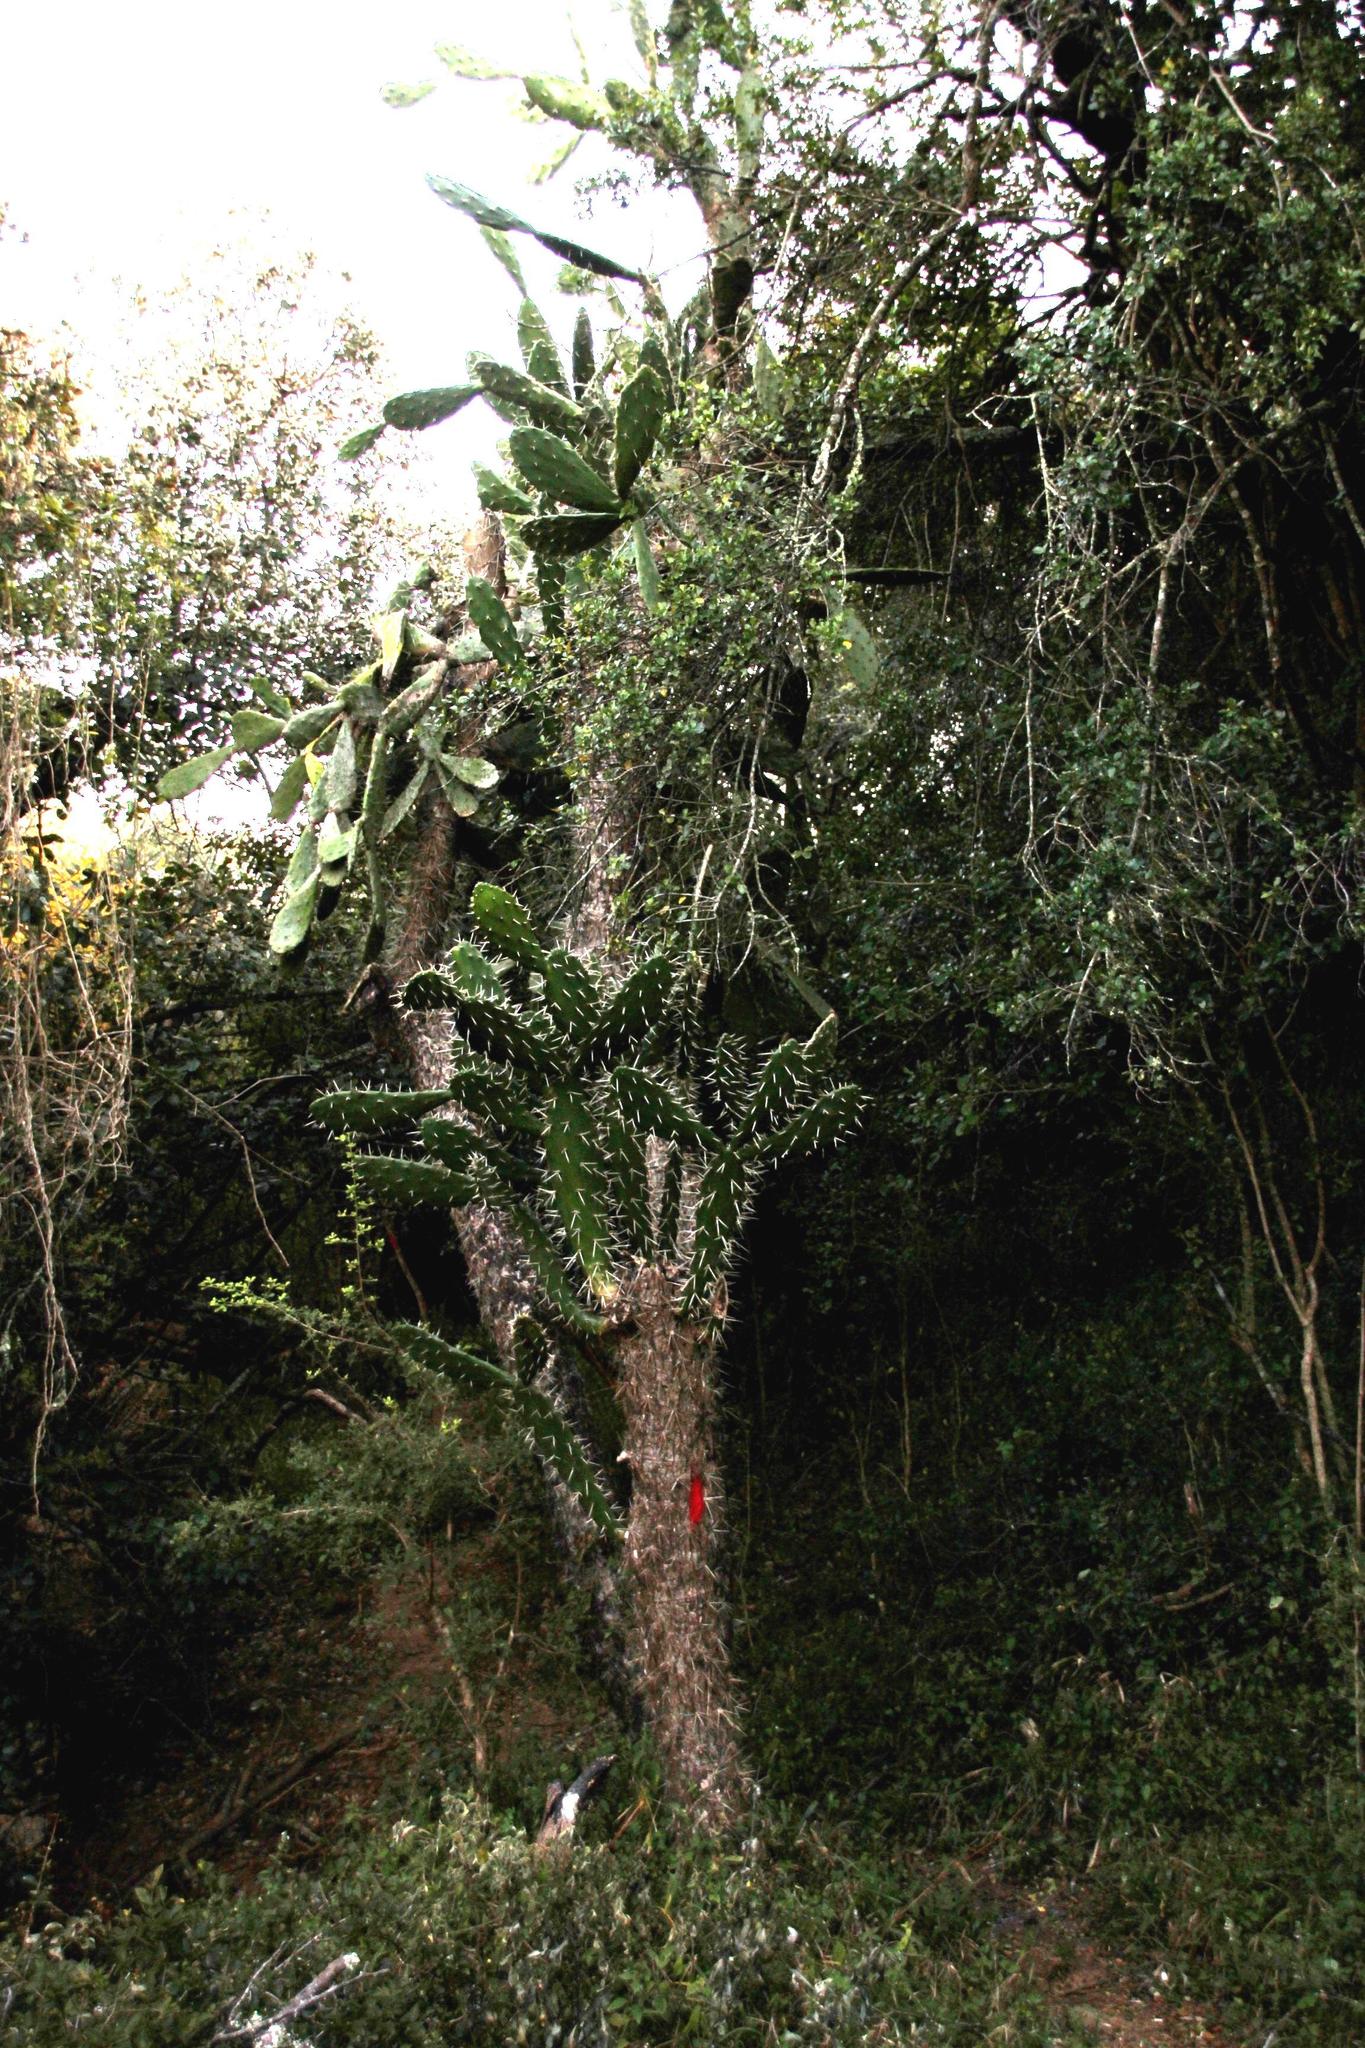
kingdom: Plantae
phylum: Tracheophyta
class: Magnoliopsida
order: Caryophyllales
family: Cactaceae
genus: Opuntia
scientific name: Opuntia ficus-indica
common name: Barbary fig
